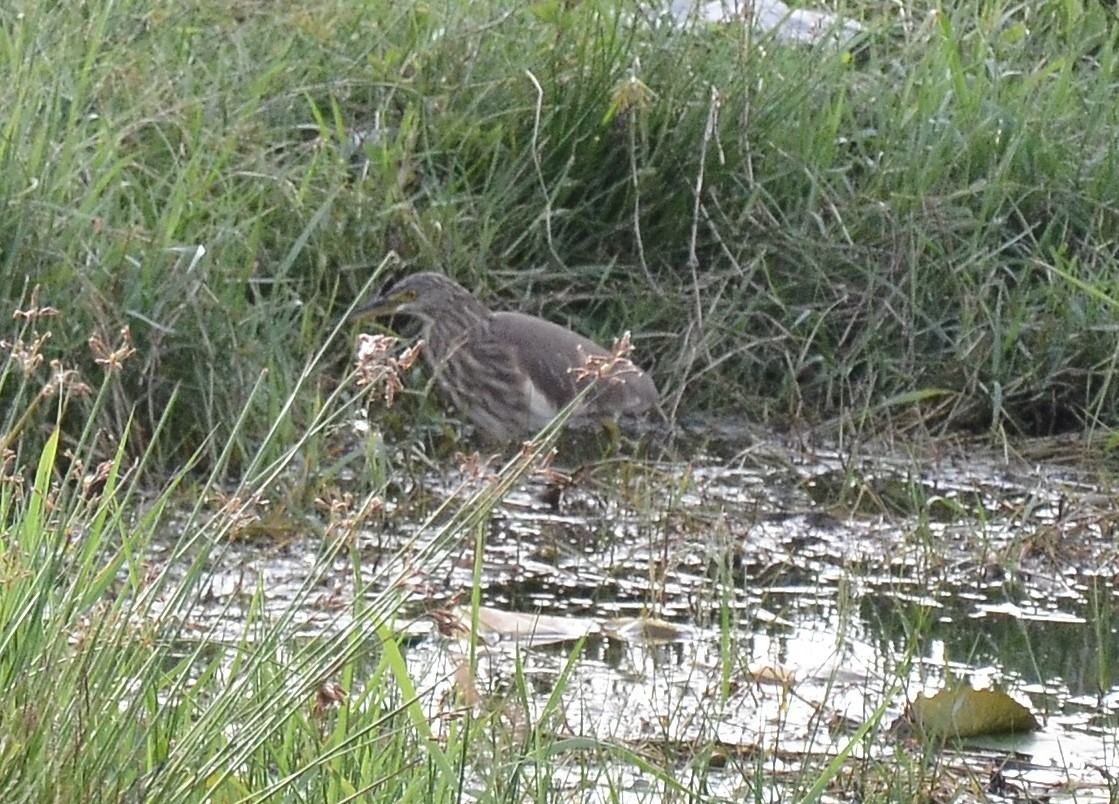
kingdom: Animalia
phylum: Chordata
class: Aves
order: Pelecaniformes
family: Ardeidae
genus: Ardeola
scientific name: Ardeola grayii
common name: Indian pond heron
